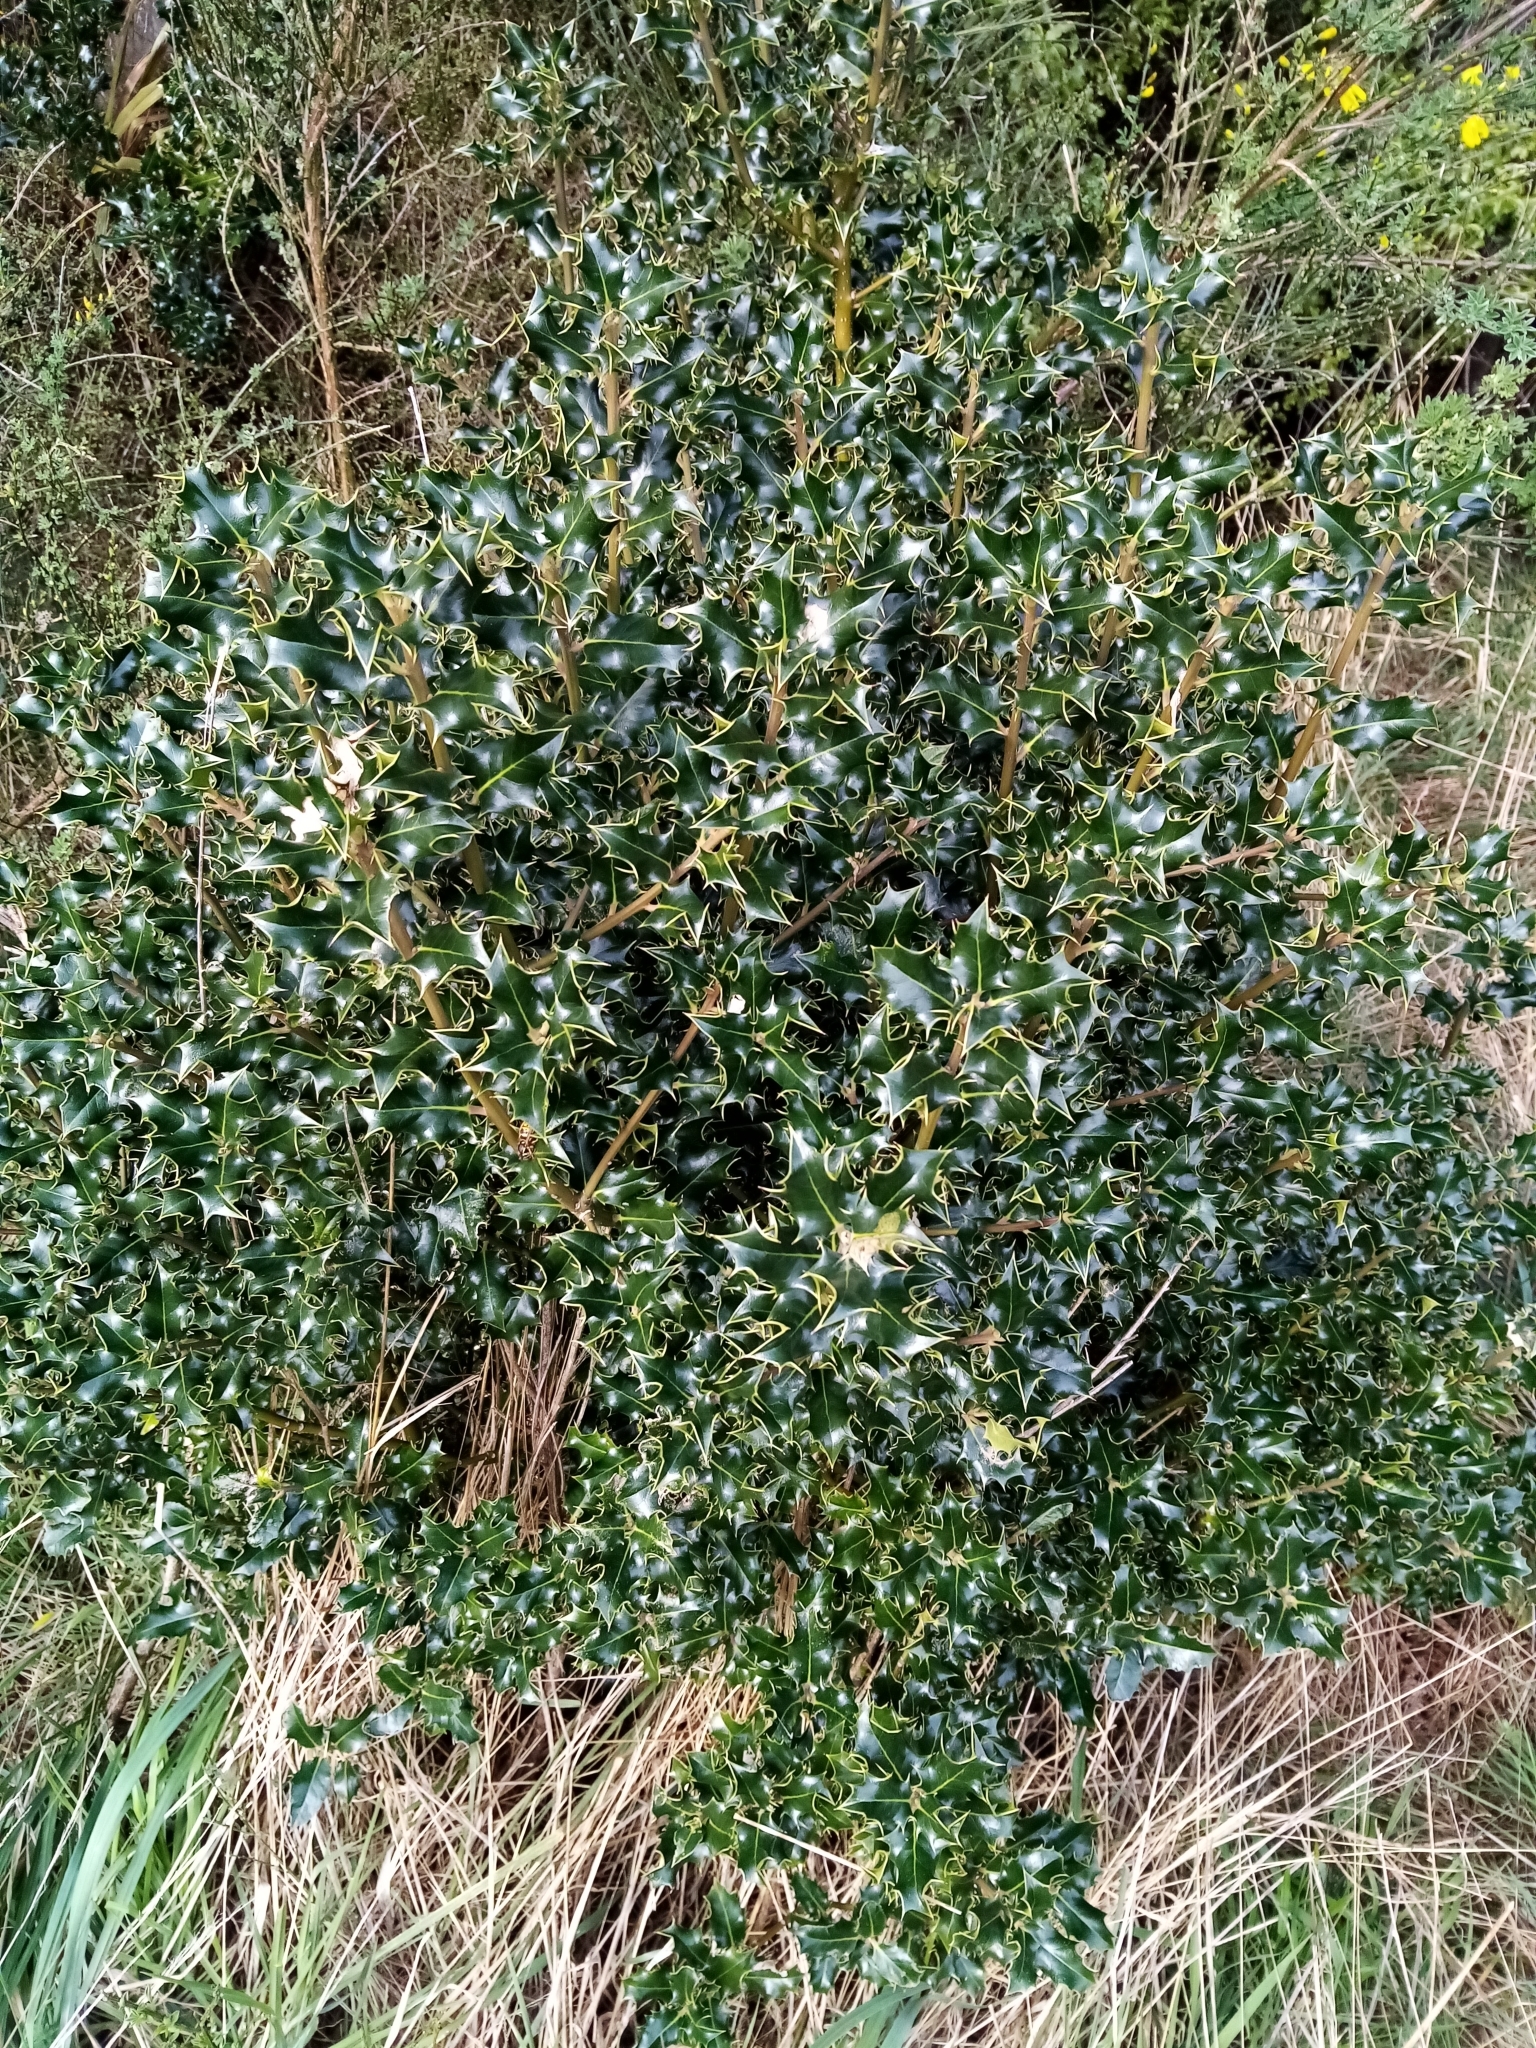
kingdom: Plantae
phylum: Tracheophyta
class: Magnoliopsida
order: Aquifoliales
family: Aquifoliaceae
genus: Ilex
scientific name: Ilex aquifolium
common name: English holly
